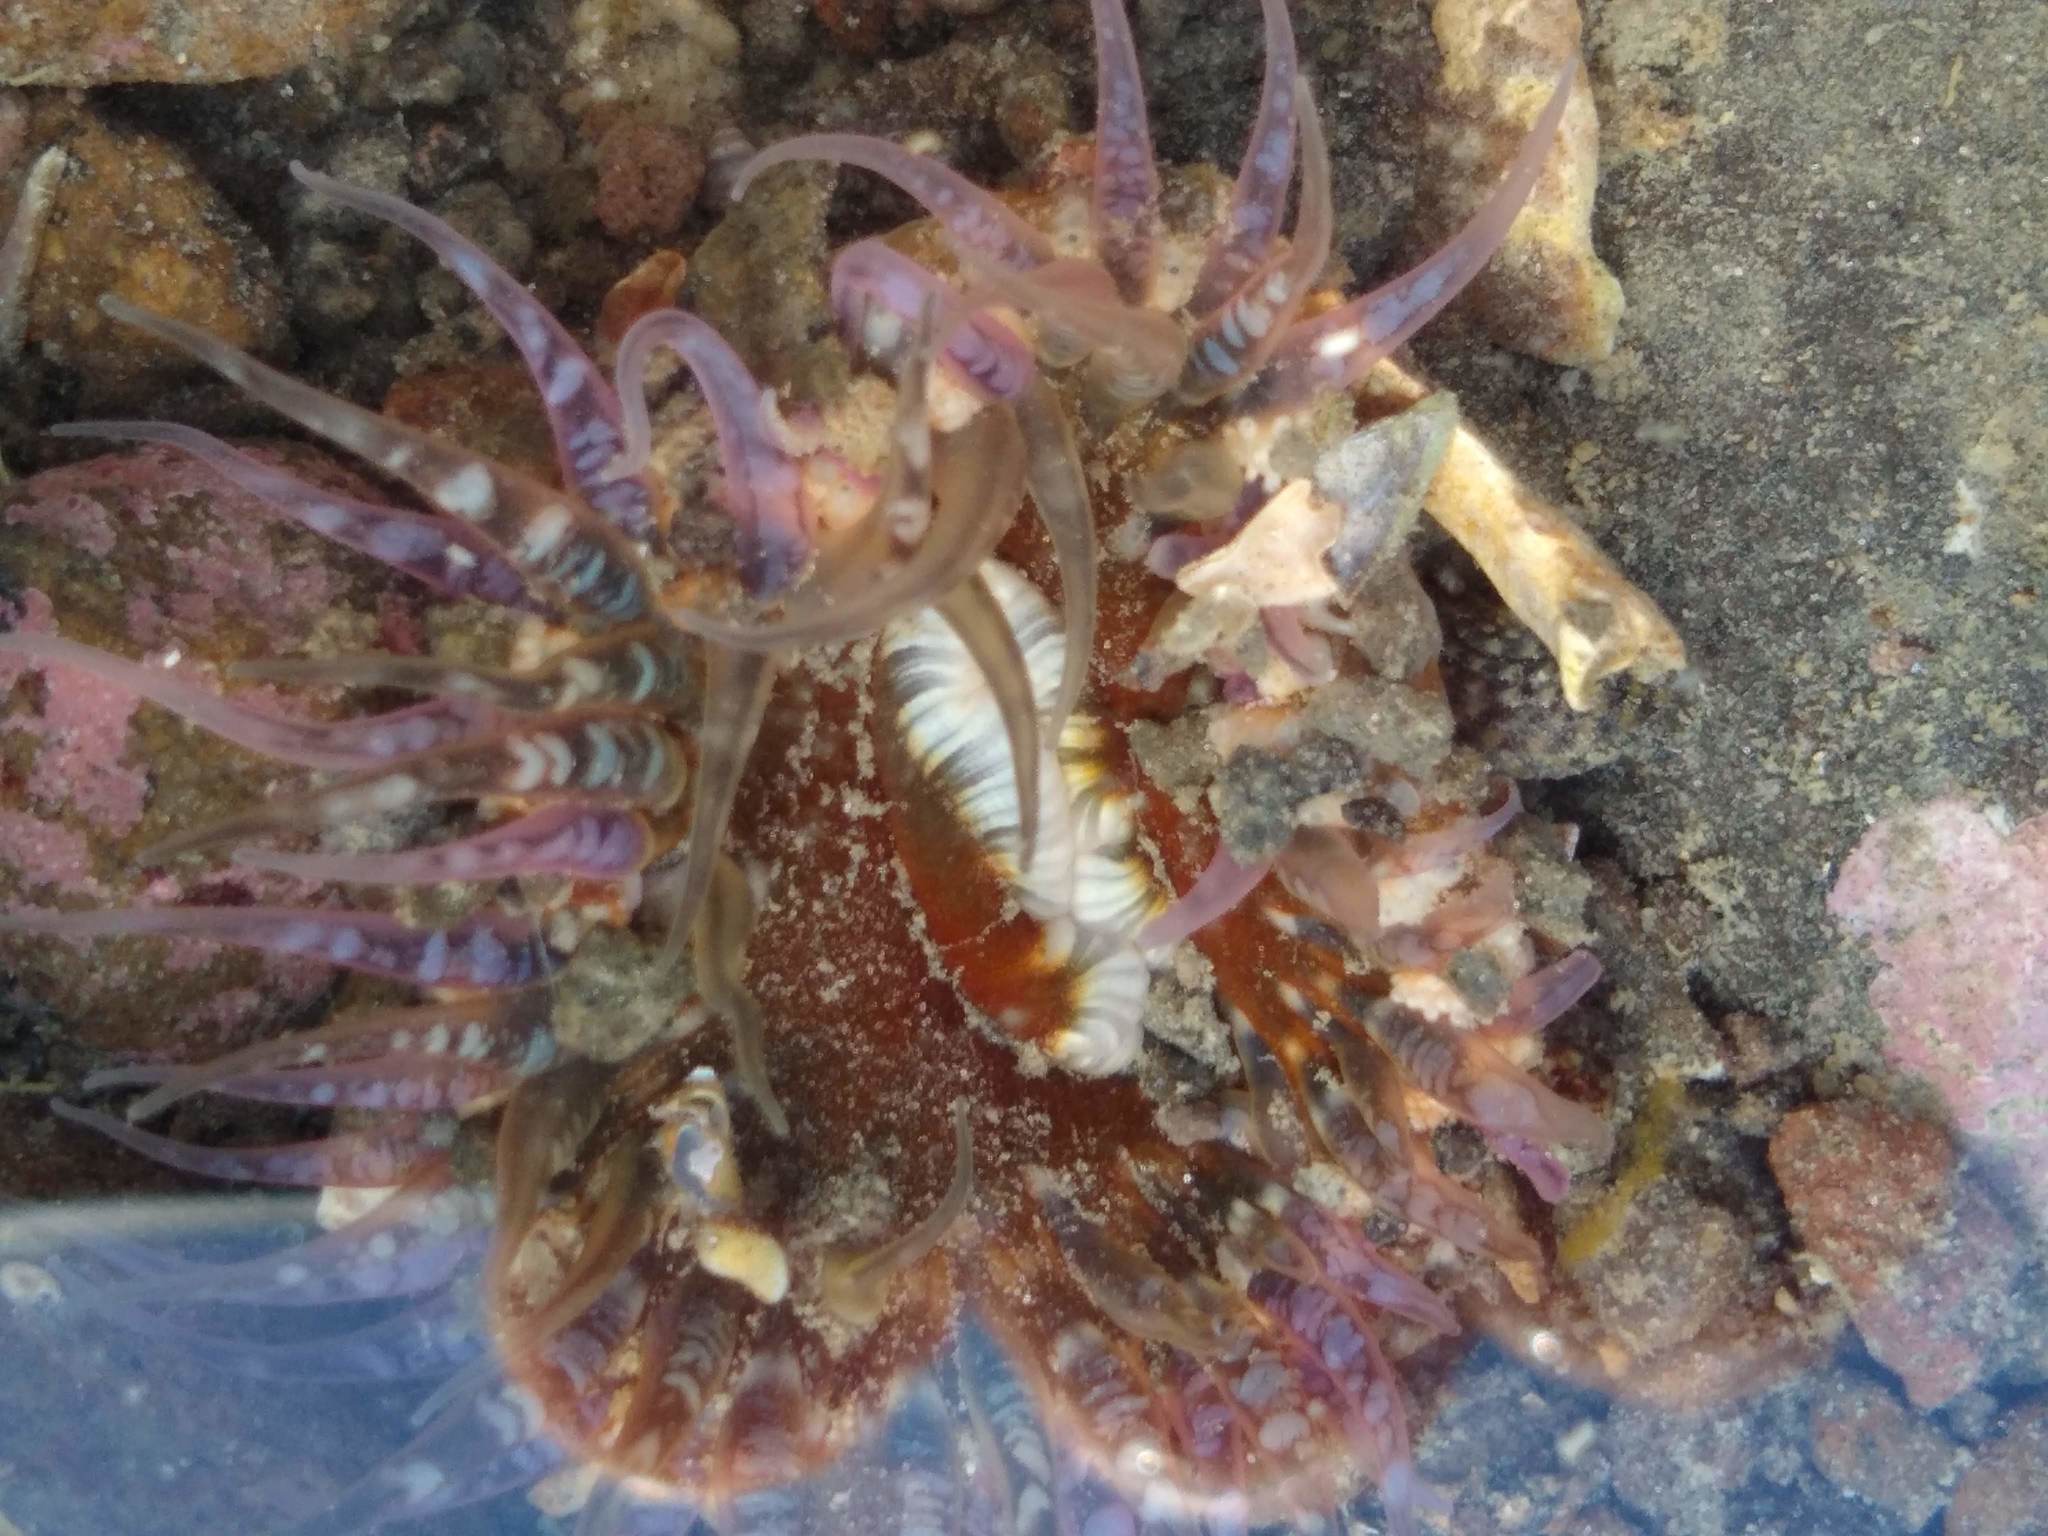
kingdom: Animalia
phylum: Cnidaria
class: Anthozoa
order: Actiniaria
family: Actiniidae
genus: Oulactis
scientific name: Oulactis muscosa
